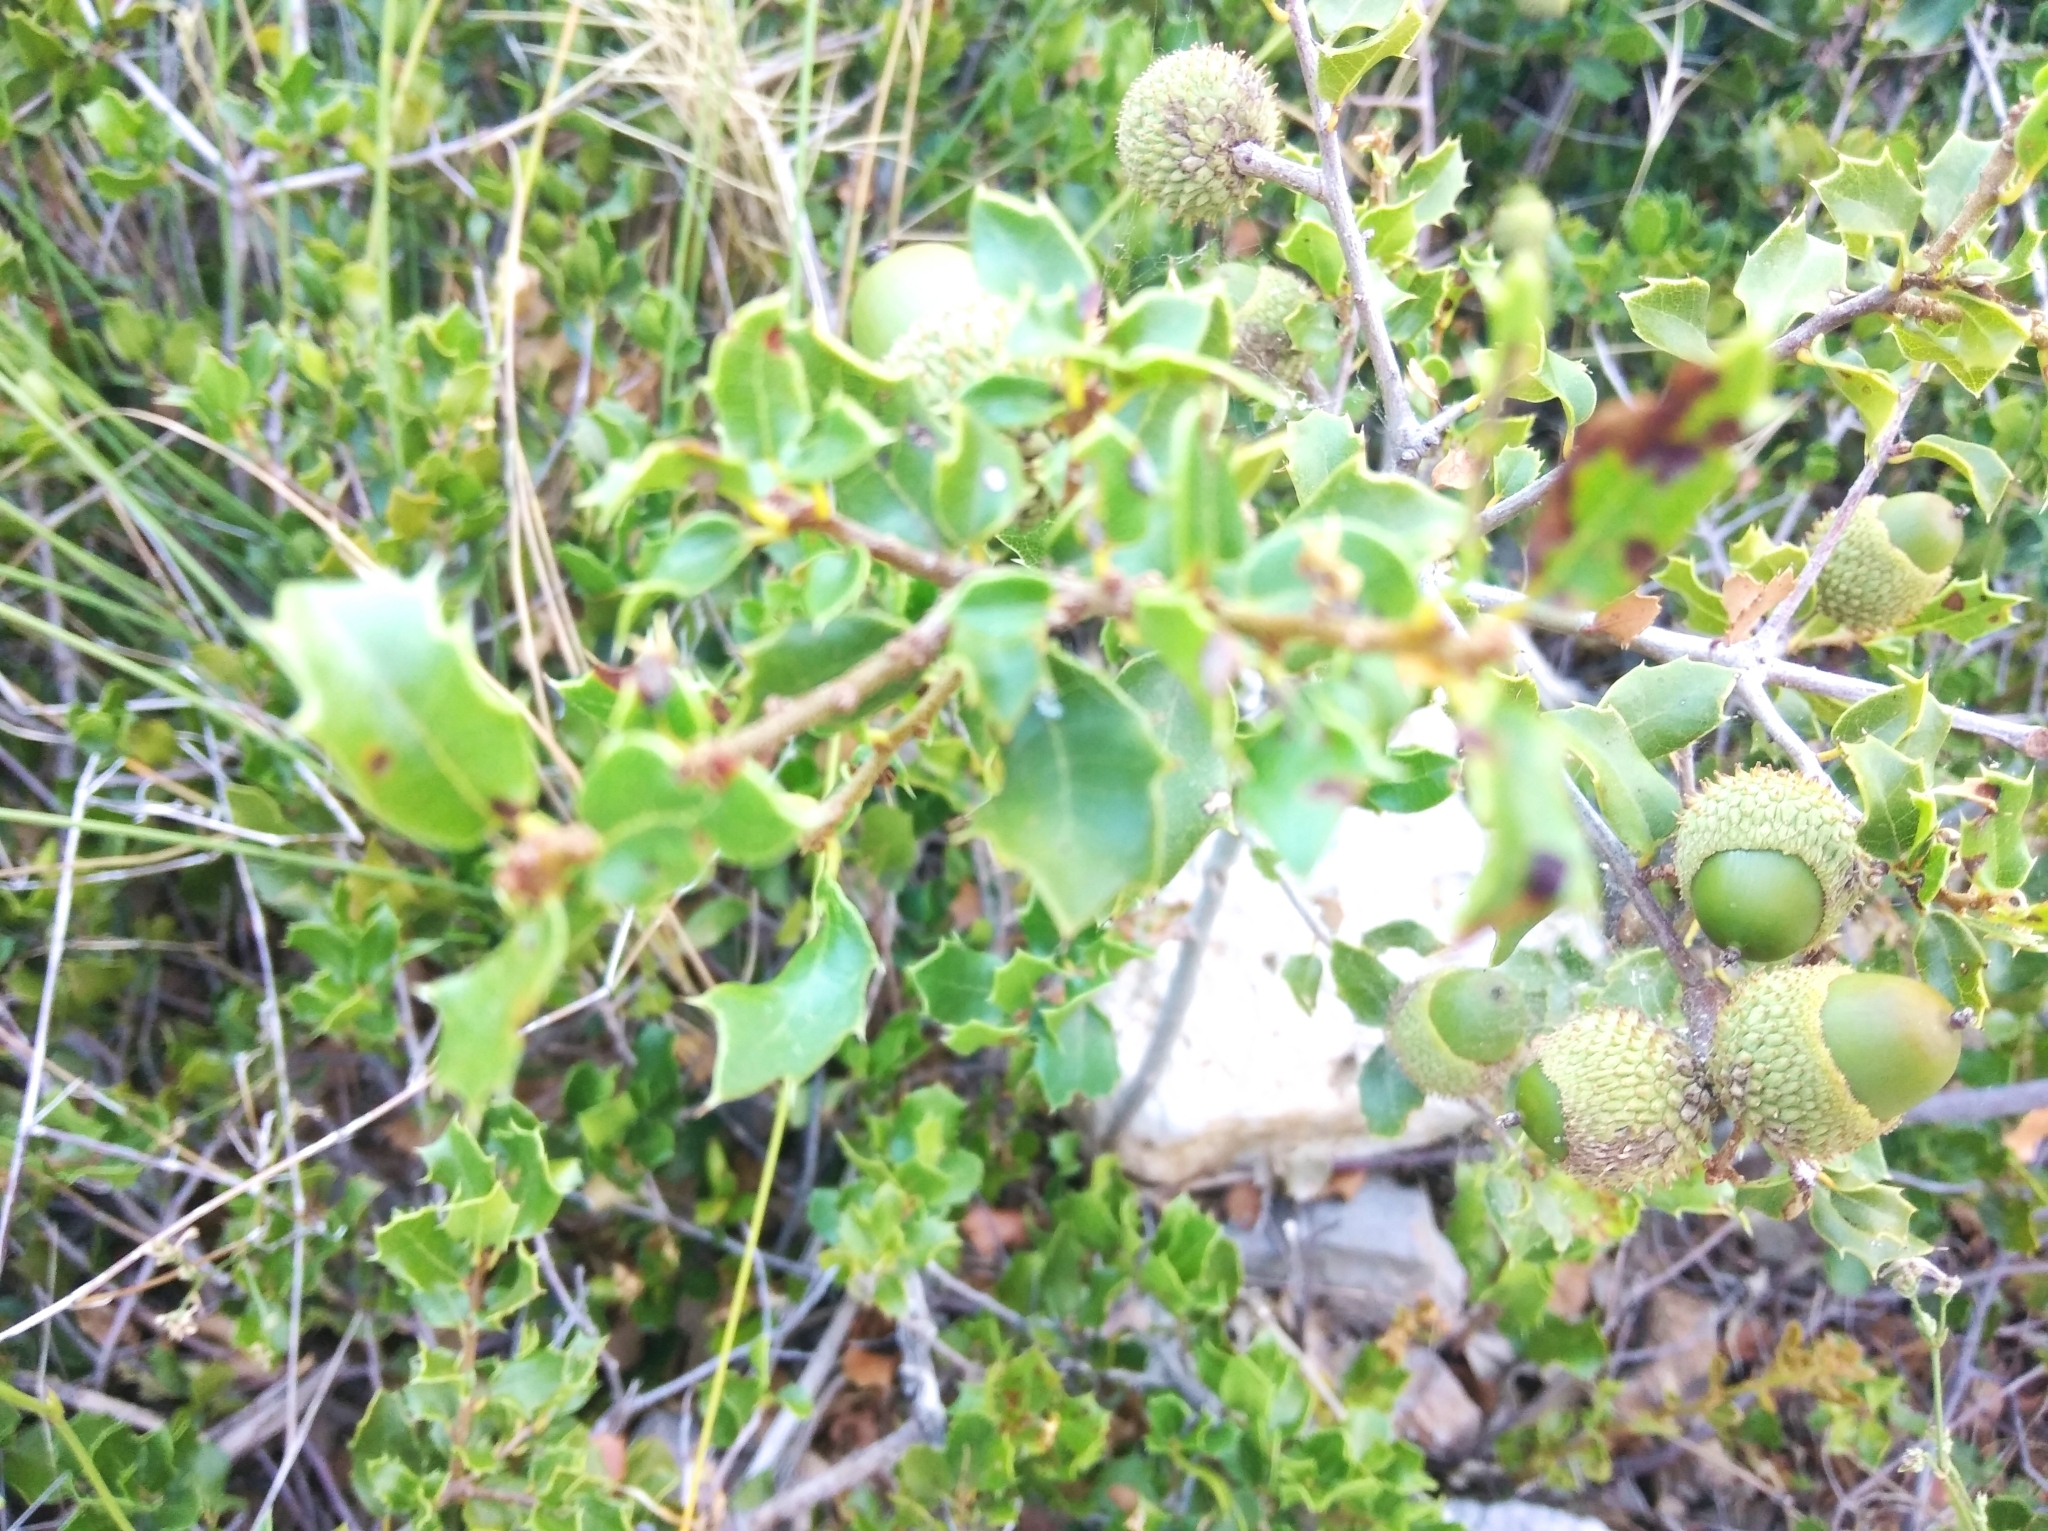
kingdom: Plantae
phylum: Tracheophyta
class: Magnoliopsida
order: Fagales
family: Fagaceae
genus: Quercus
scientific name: Quercus coccifera
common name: Kermes oak
